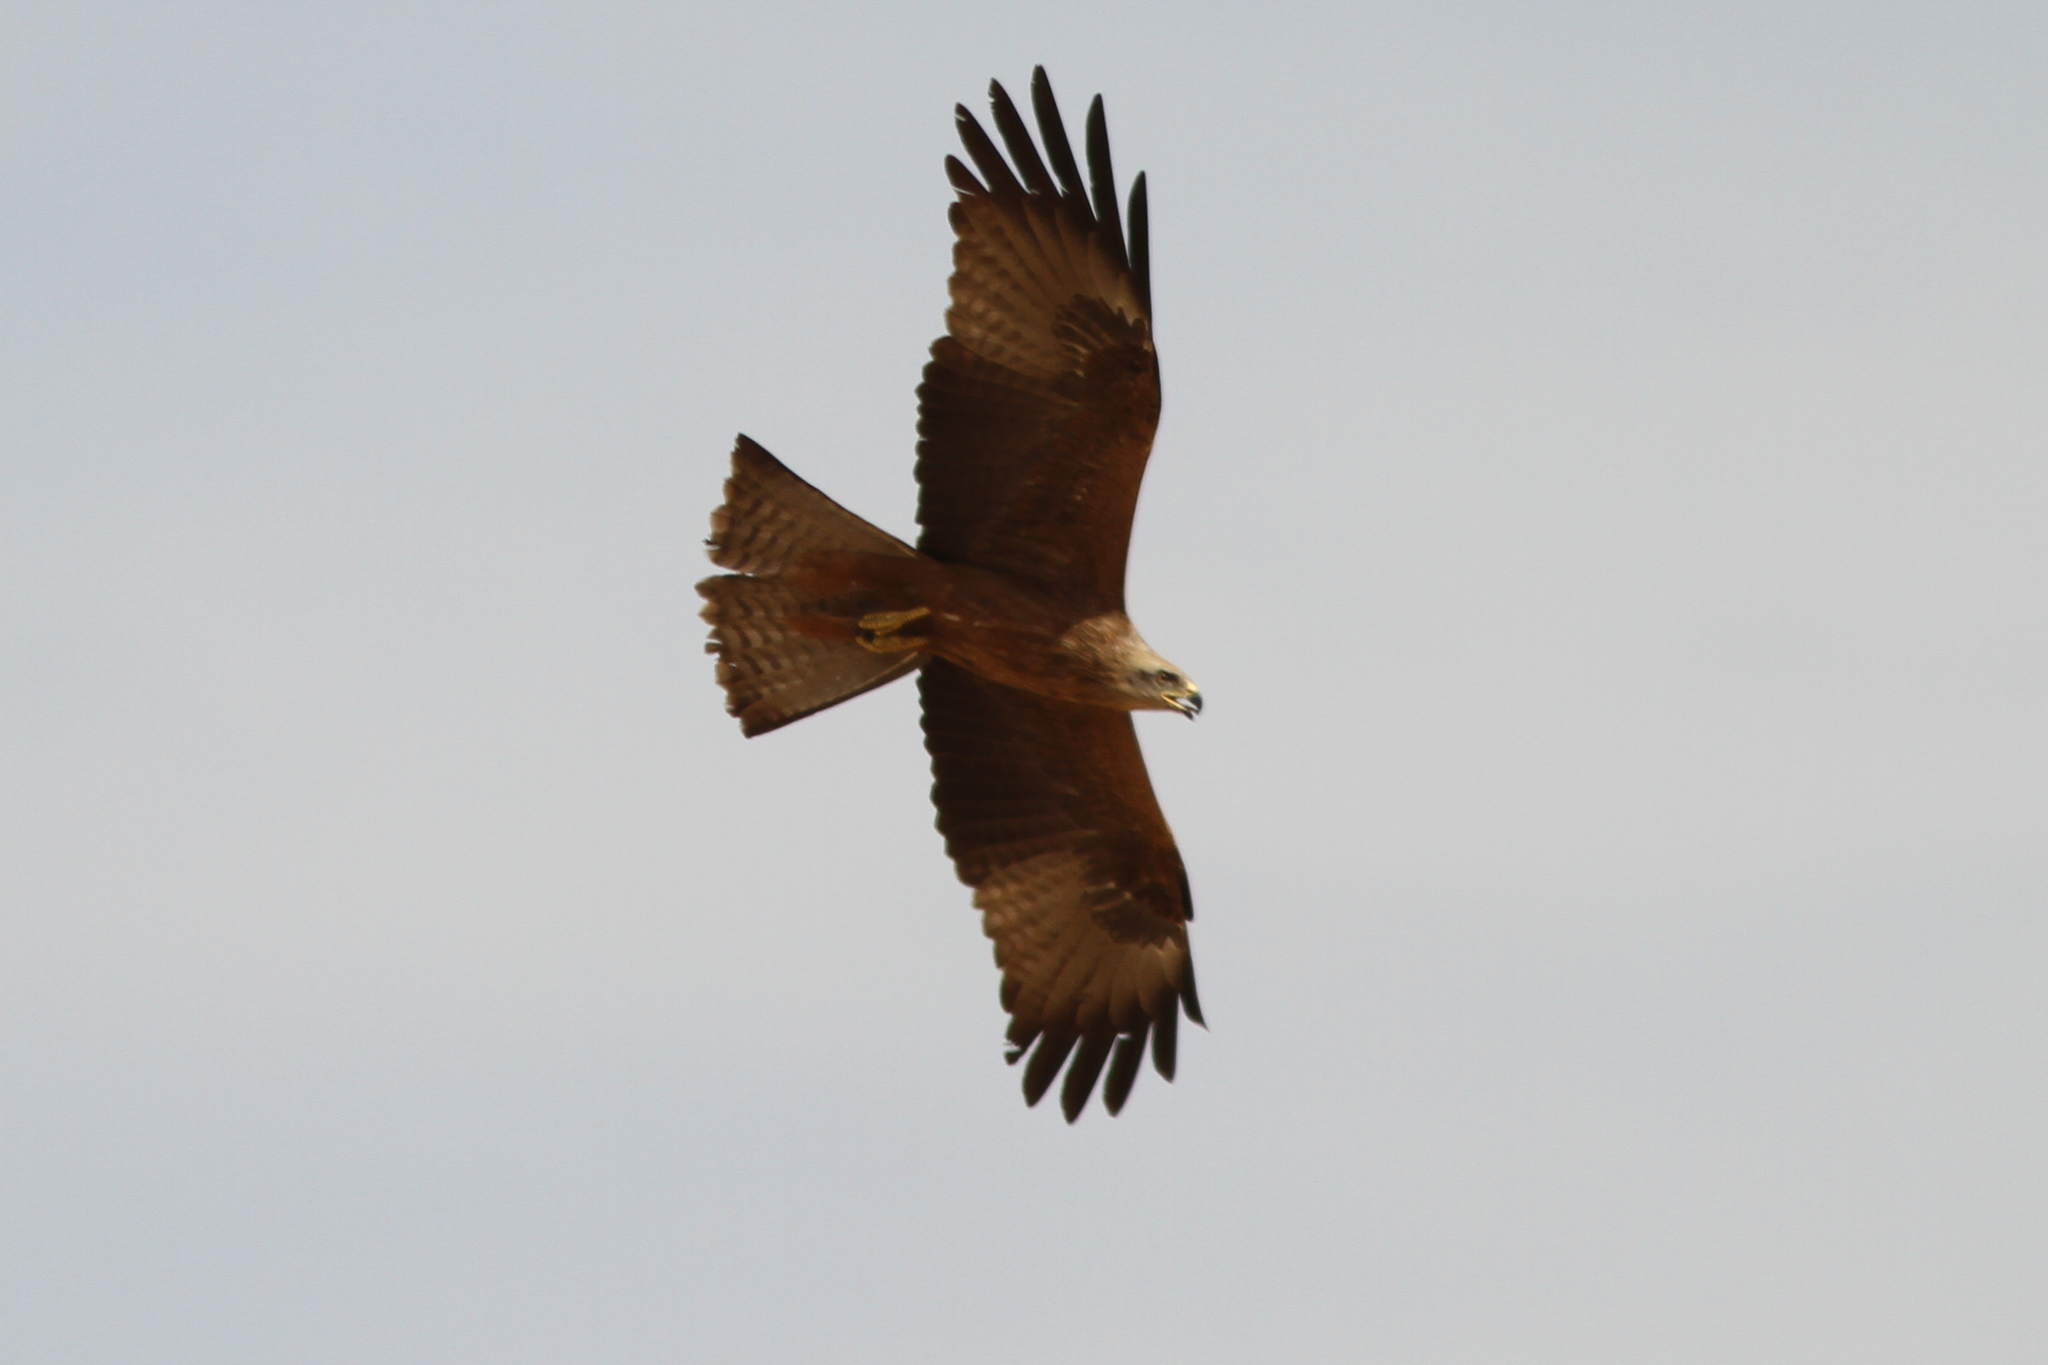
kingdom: Animalia
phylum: Chordata
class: Aves
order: Accipitriformes
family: Accipitridae
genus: Milvus
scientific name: Milvus migrans
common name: Black kite
